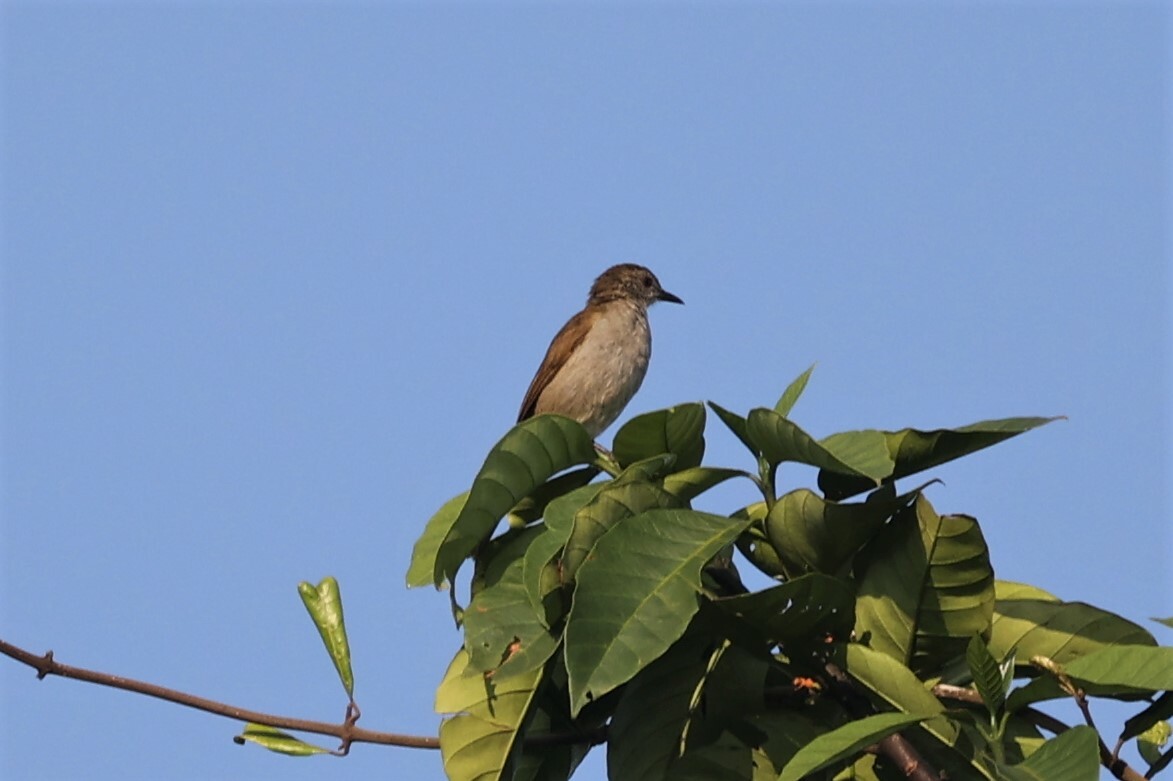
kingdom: Animalia
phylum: Chordata
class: Aves
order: Passeriformes
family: Pycnonotidae
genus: Stelgidillas
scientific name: Stelgidillas gracilirostris
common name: Slender-billed greenbul
